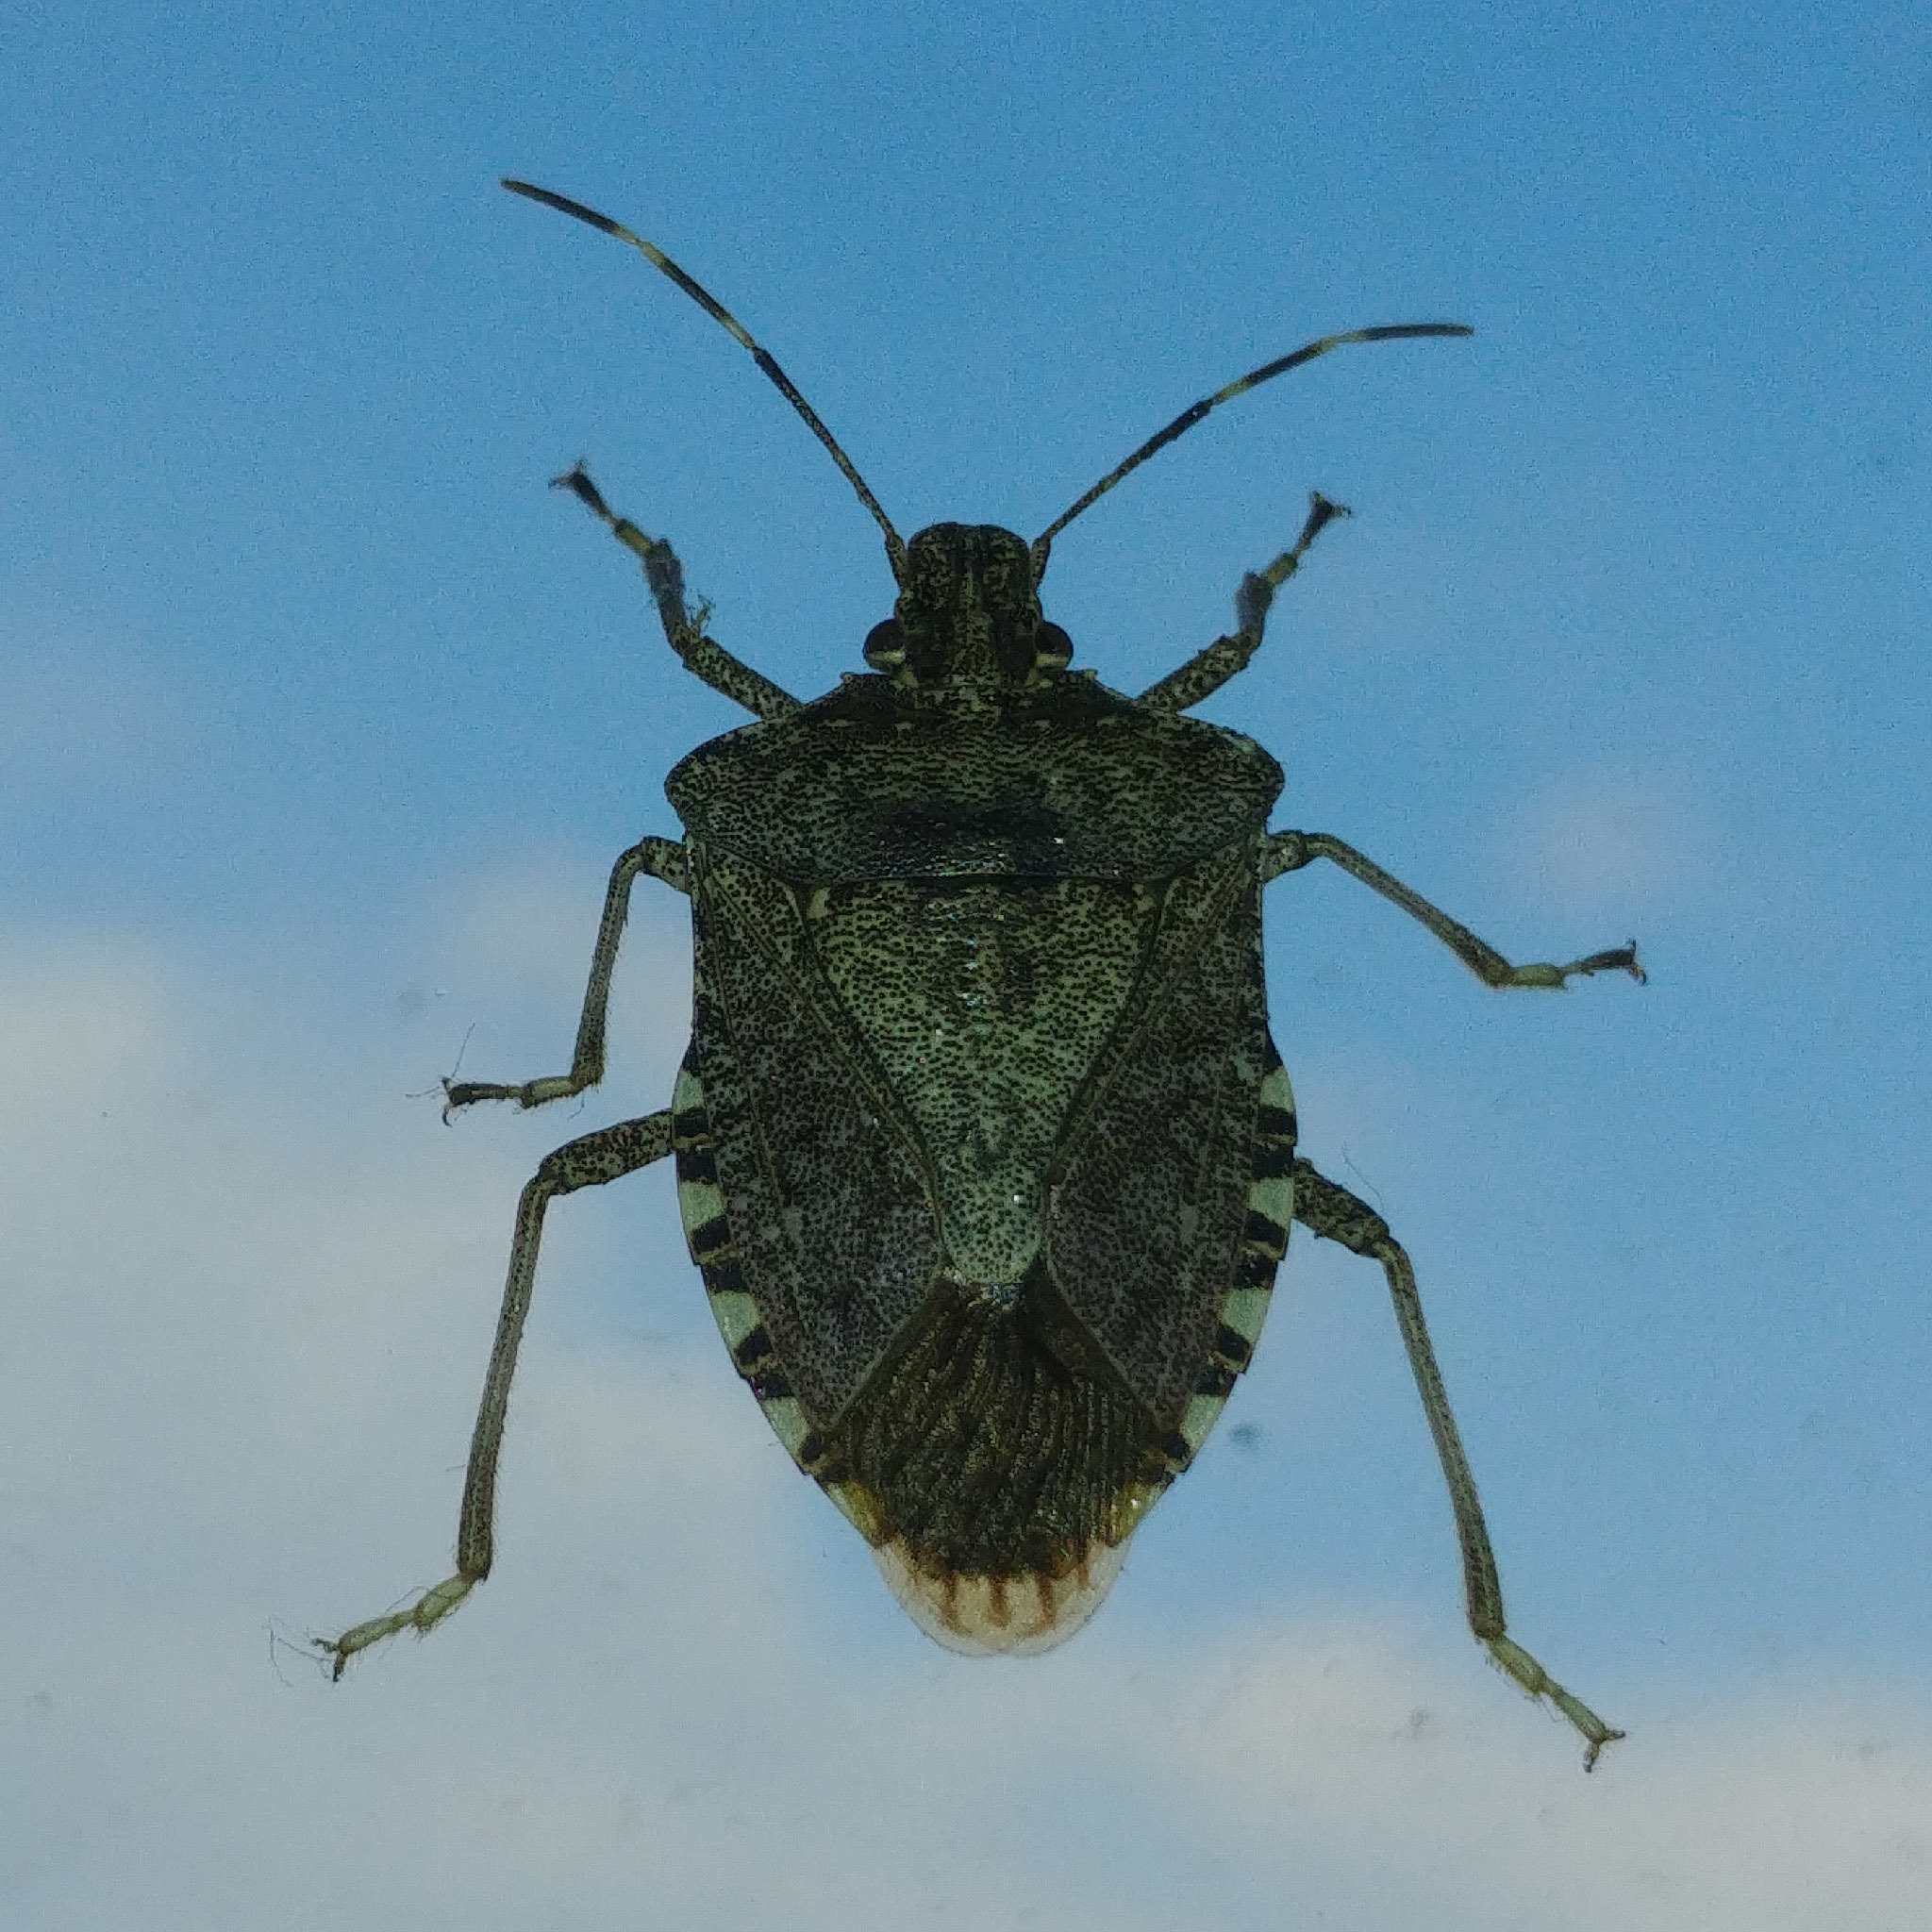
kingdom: Animalia
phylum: Arthropoda
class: Insecta
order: Hemiptera
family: Pentatomidae
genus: Halyomorpha
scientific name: Halyomorpha halys
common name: Brown marmorated stink bug
